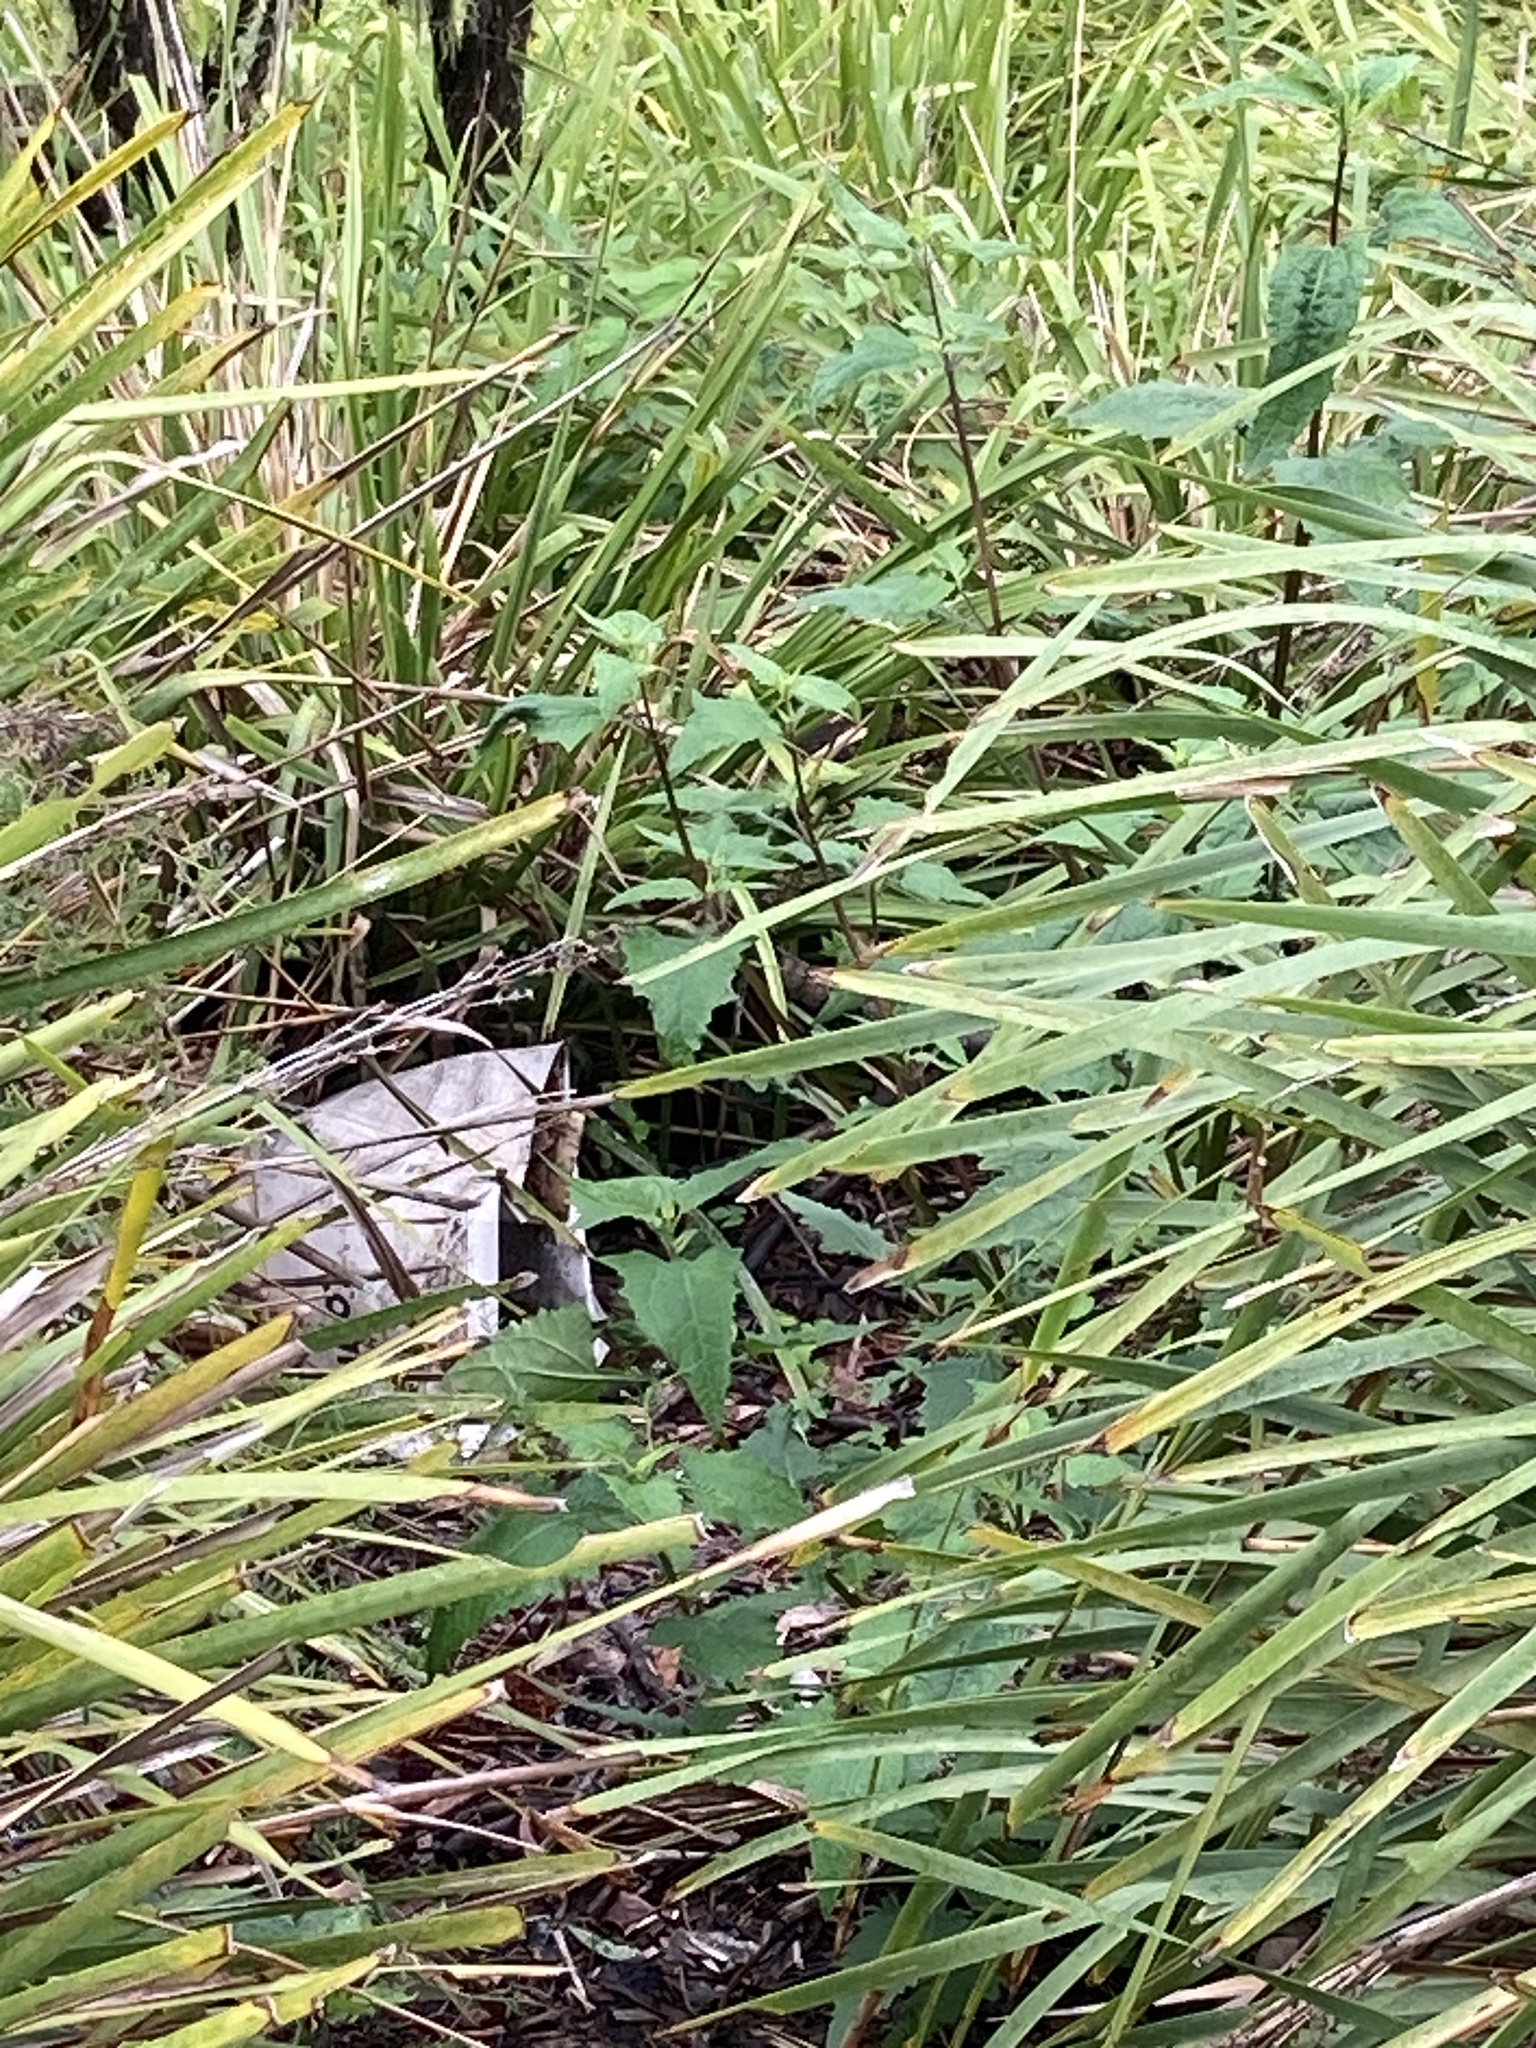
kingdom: Plantae
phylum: Tracheophyta
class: Magnoliopsida
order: Asterales
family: Asteraceae
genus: Sigesbeckia
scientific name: Sigesbeckia orientalis
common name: Eastern st paul's-wort
